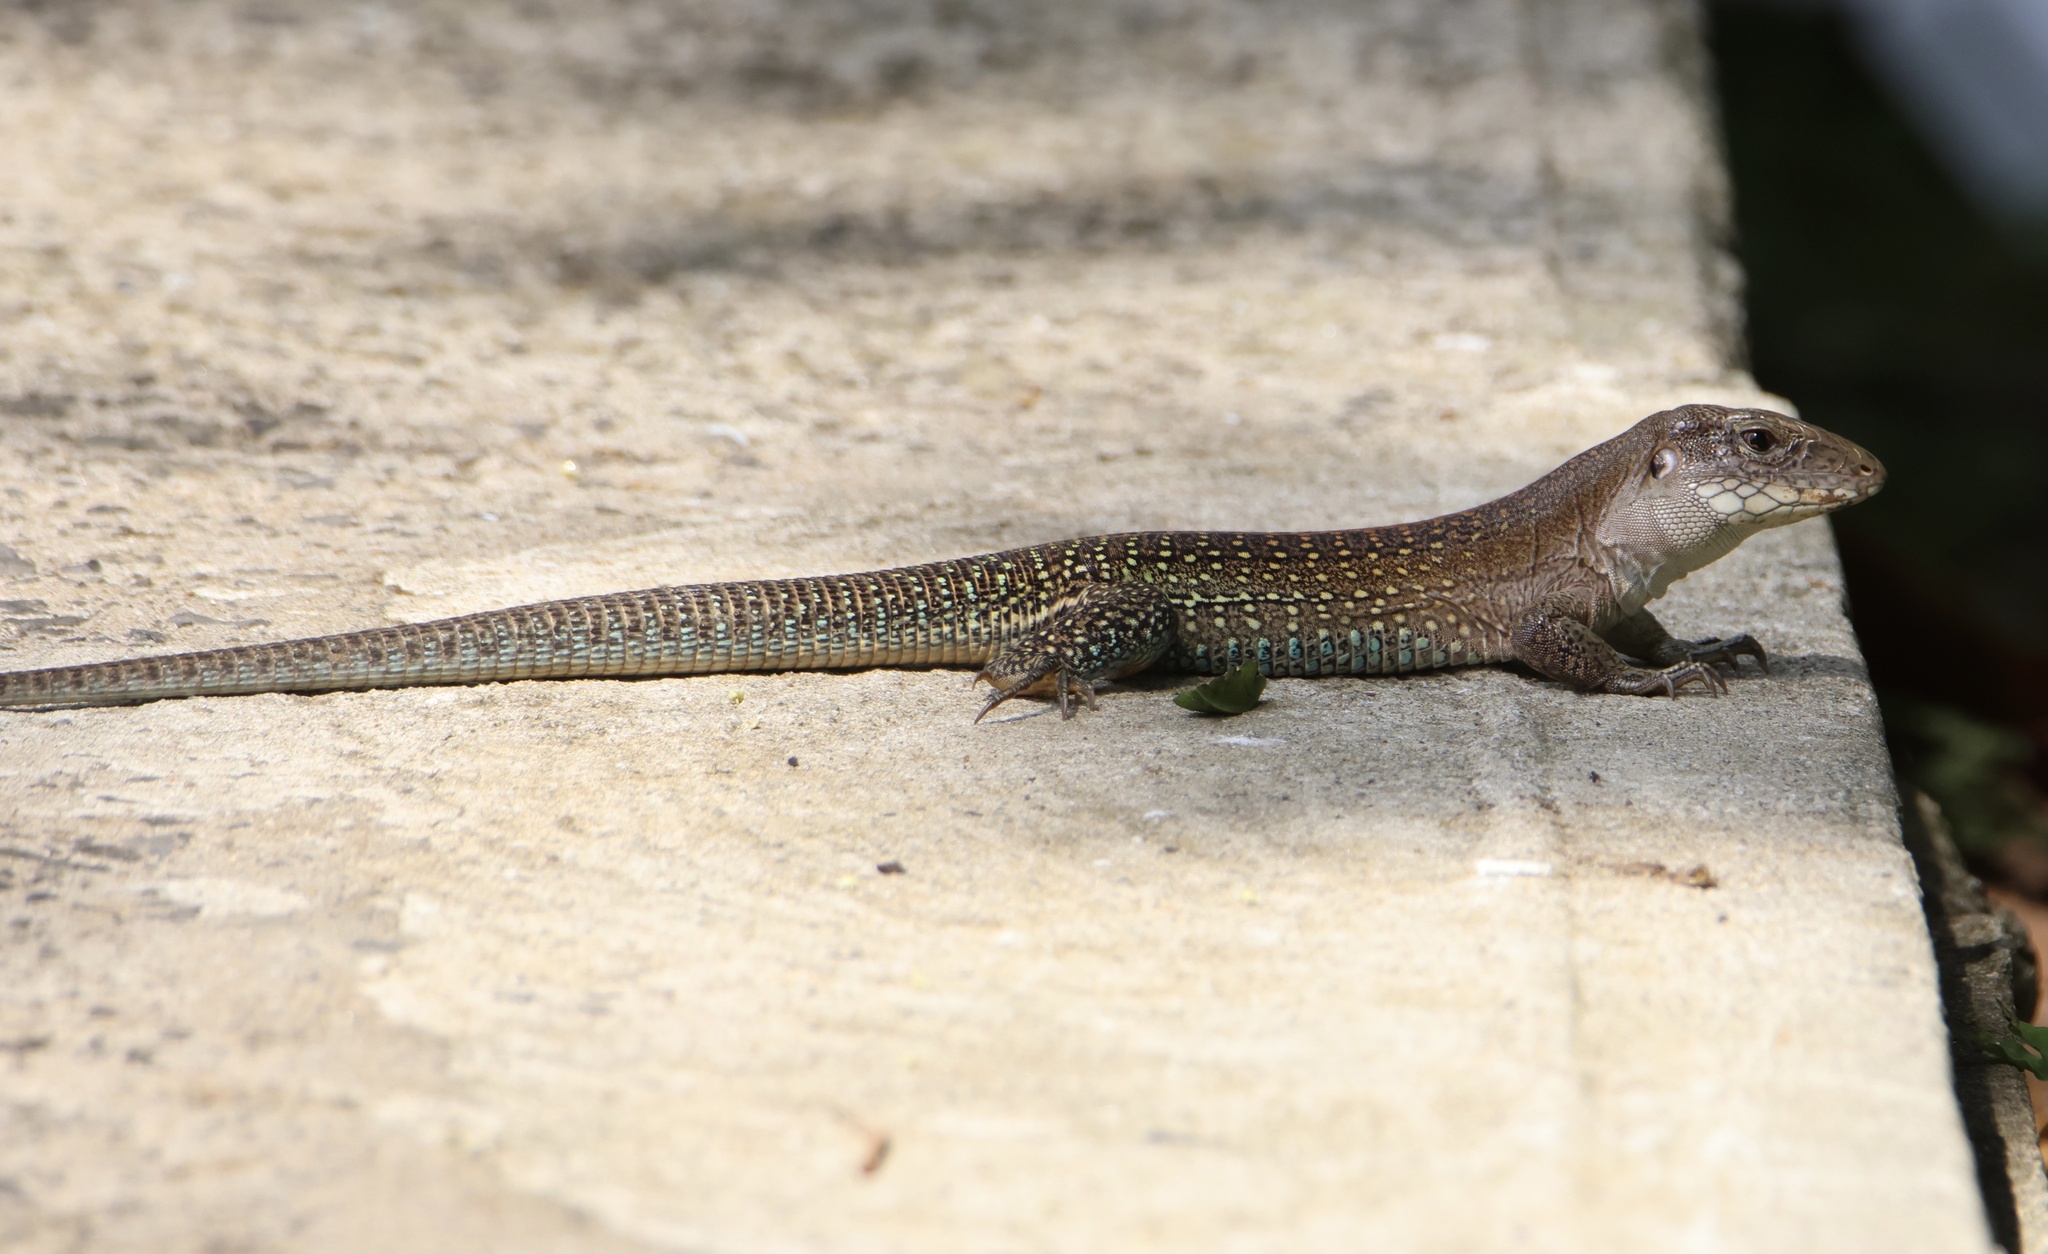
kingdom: Animalia
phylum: Chordata
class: Squamata
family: Teiidae
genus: Ameiva
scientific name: Ameiva praesignis
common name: Giant ameiva
